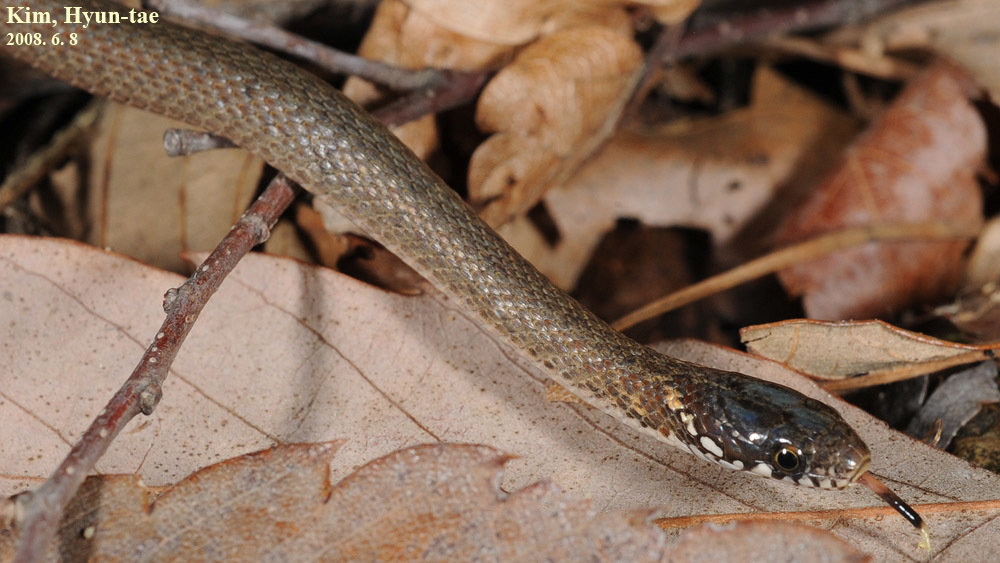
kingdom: Animalia
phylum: Chordata
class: Squamata
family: Colubridae
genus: Hebius
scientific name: Hebius vibakari
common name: Japanese keelback
